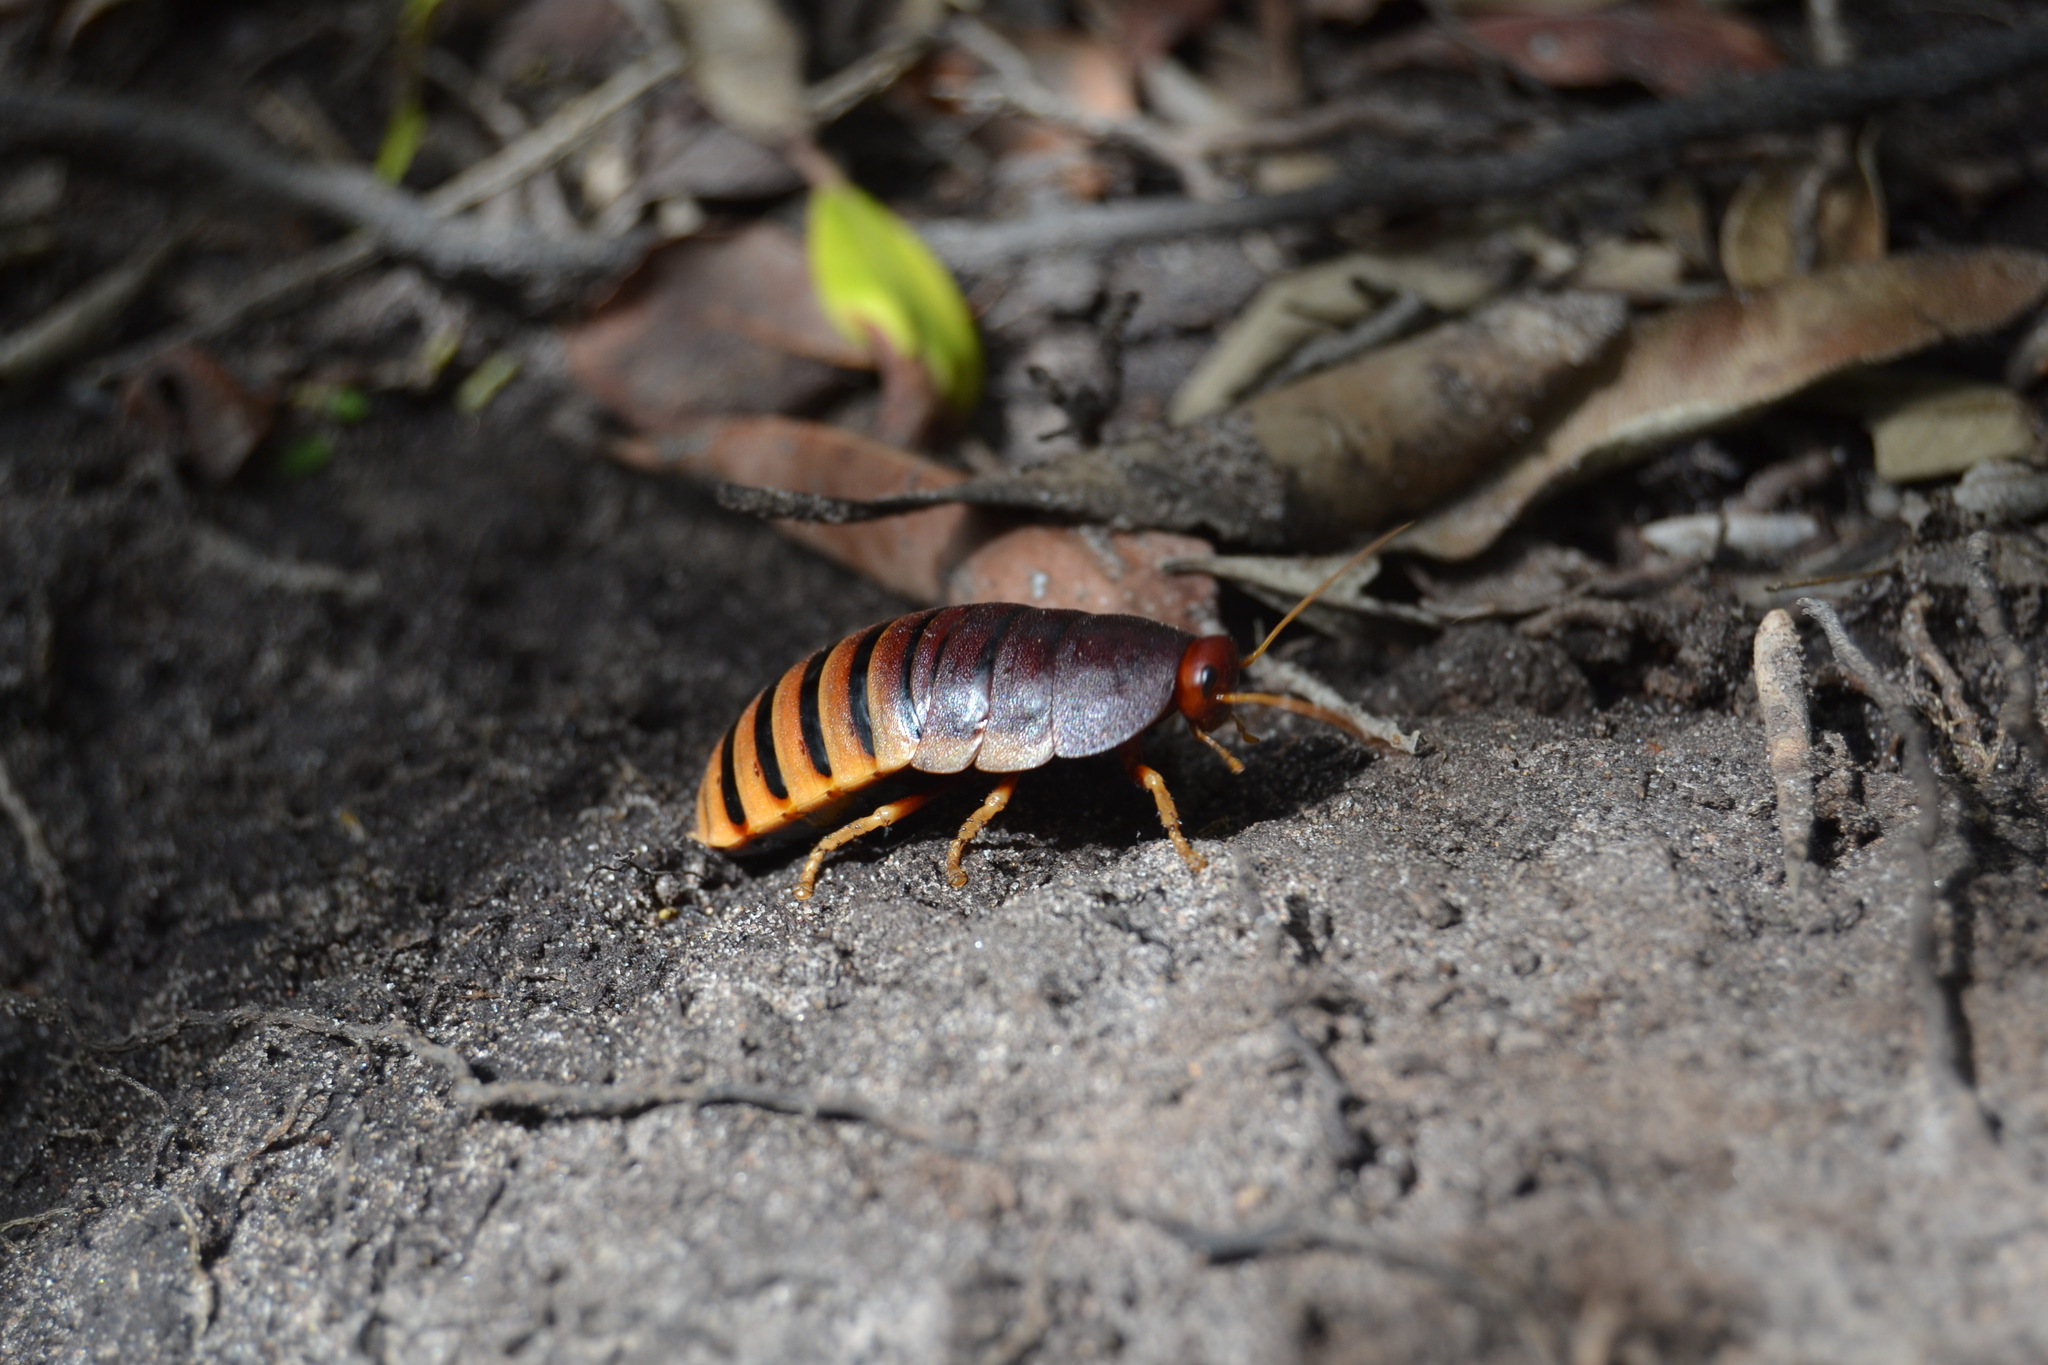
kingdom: Animalia
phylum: Arthropoda
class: Insecta
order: Blattodea
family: Blaberidae
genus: Aptera
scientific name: Aptera fusca
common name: Cape mountain cockroach
